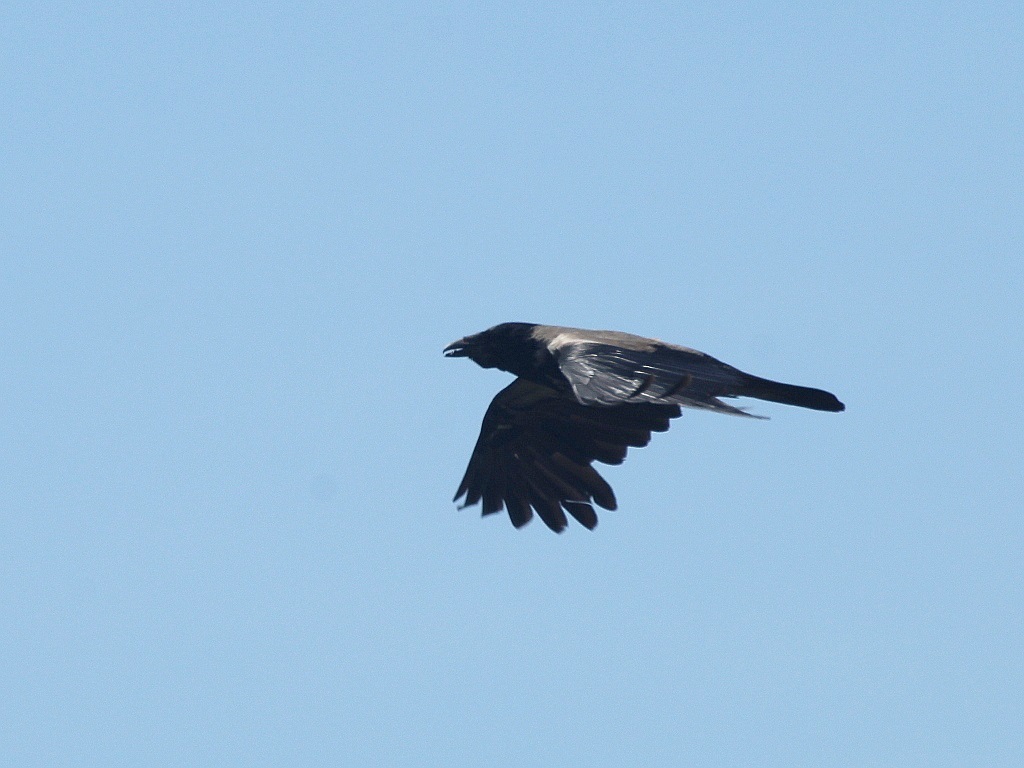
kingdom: Animalia
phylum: Chordata
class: Aves
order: Passeriformes
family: Corvidae
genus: Corvus
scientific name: Corvus cornix
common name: Hooded crow
